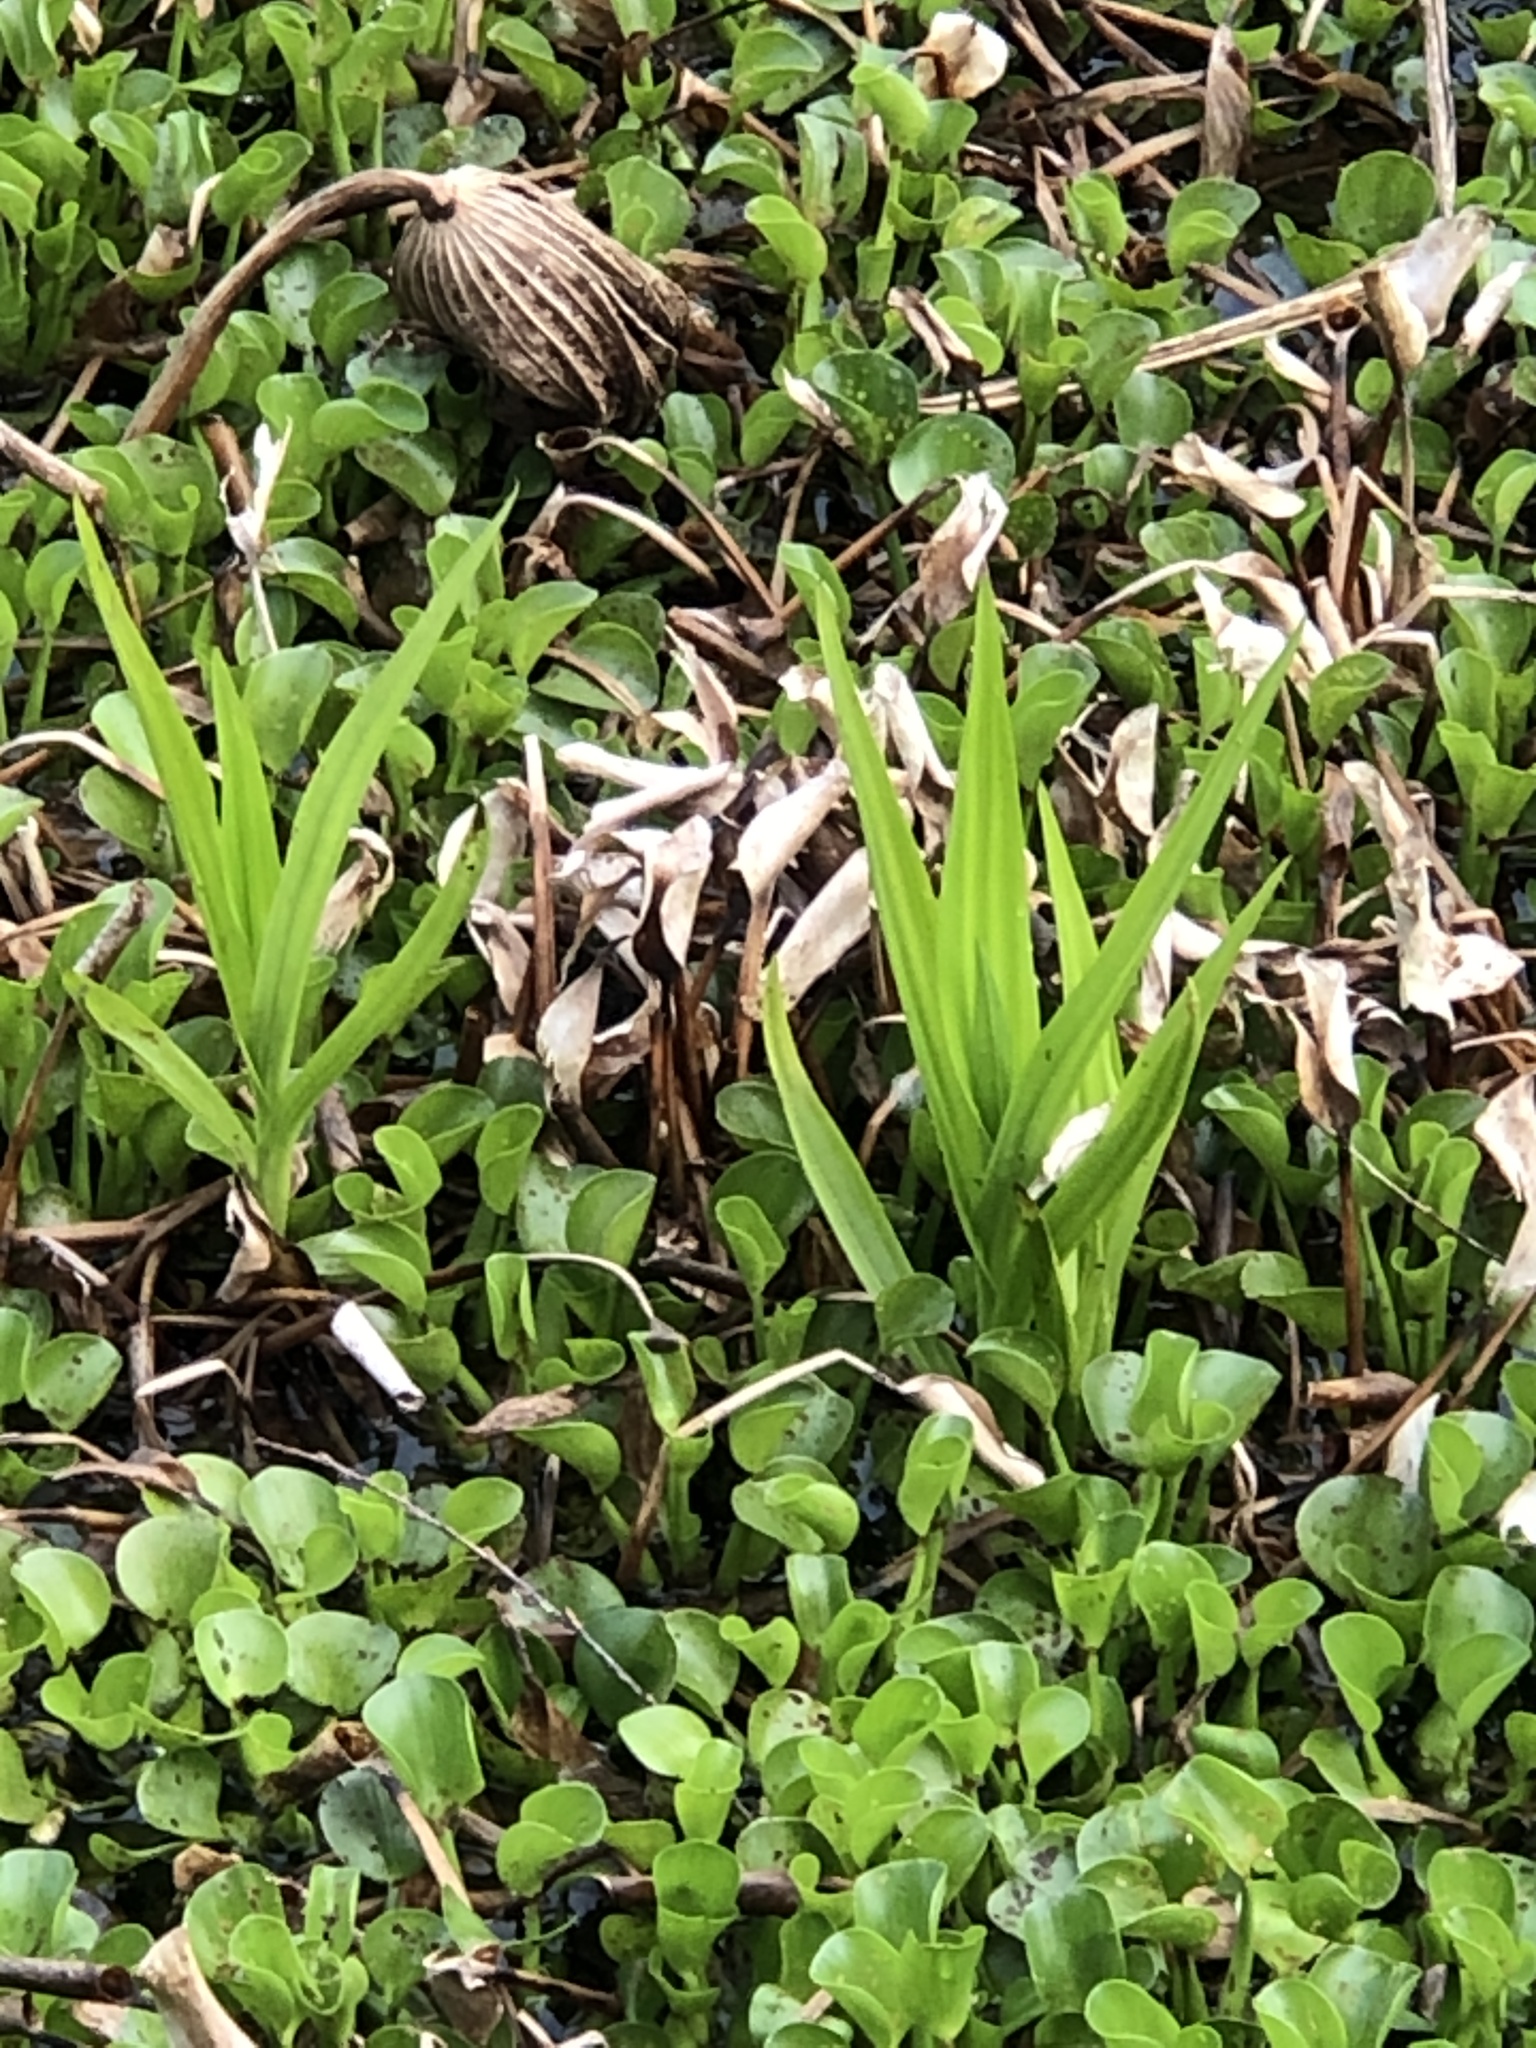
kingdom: Plantae
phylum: Tracheophyta
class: Liliopsida
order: Asparagales
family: Orchidaceae
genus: Habenaria
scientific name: Habenaria repens
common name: Water orchid
